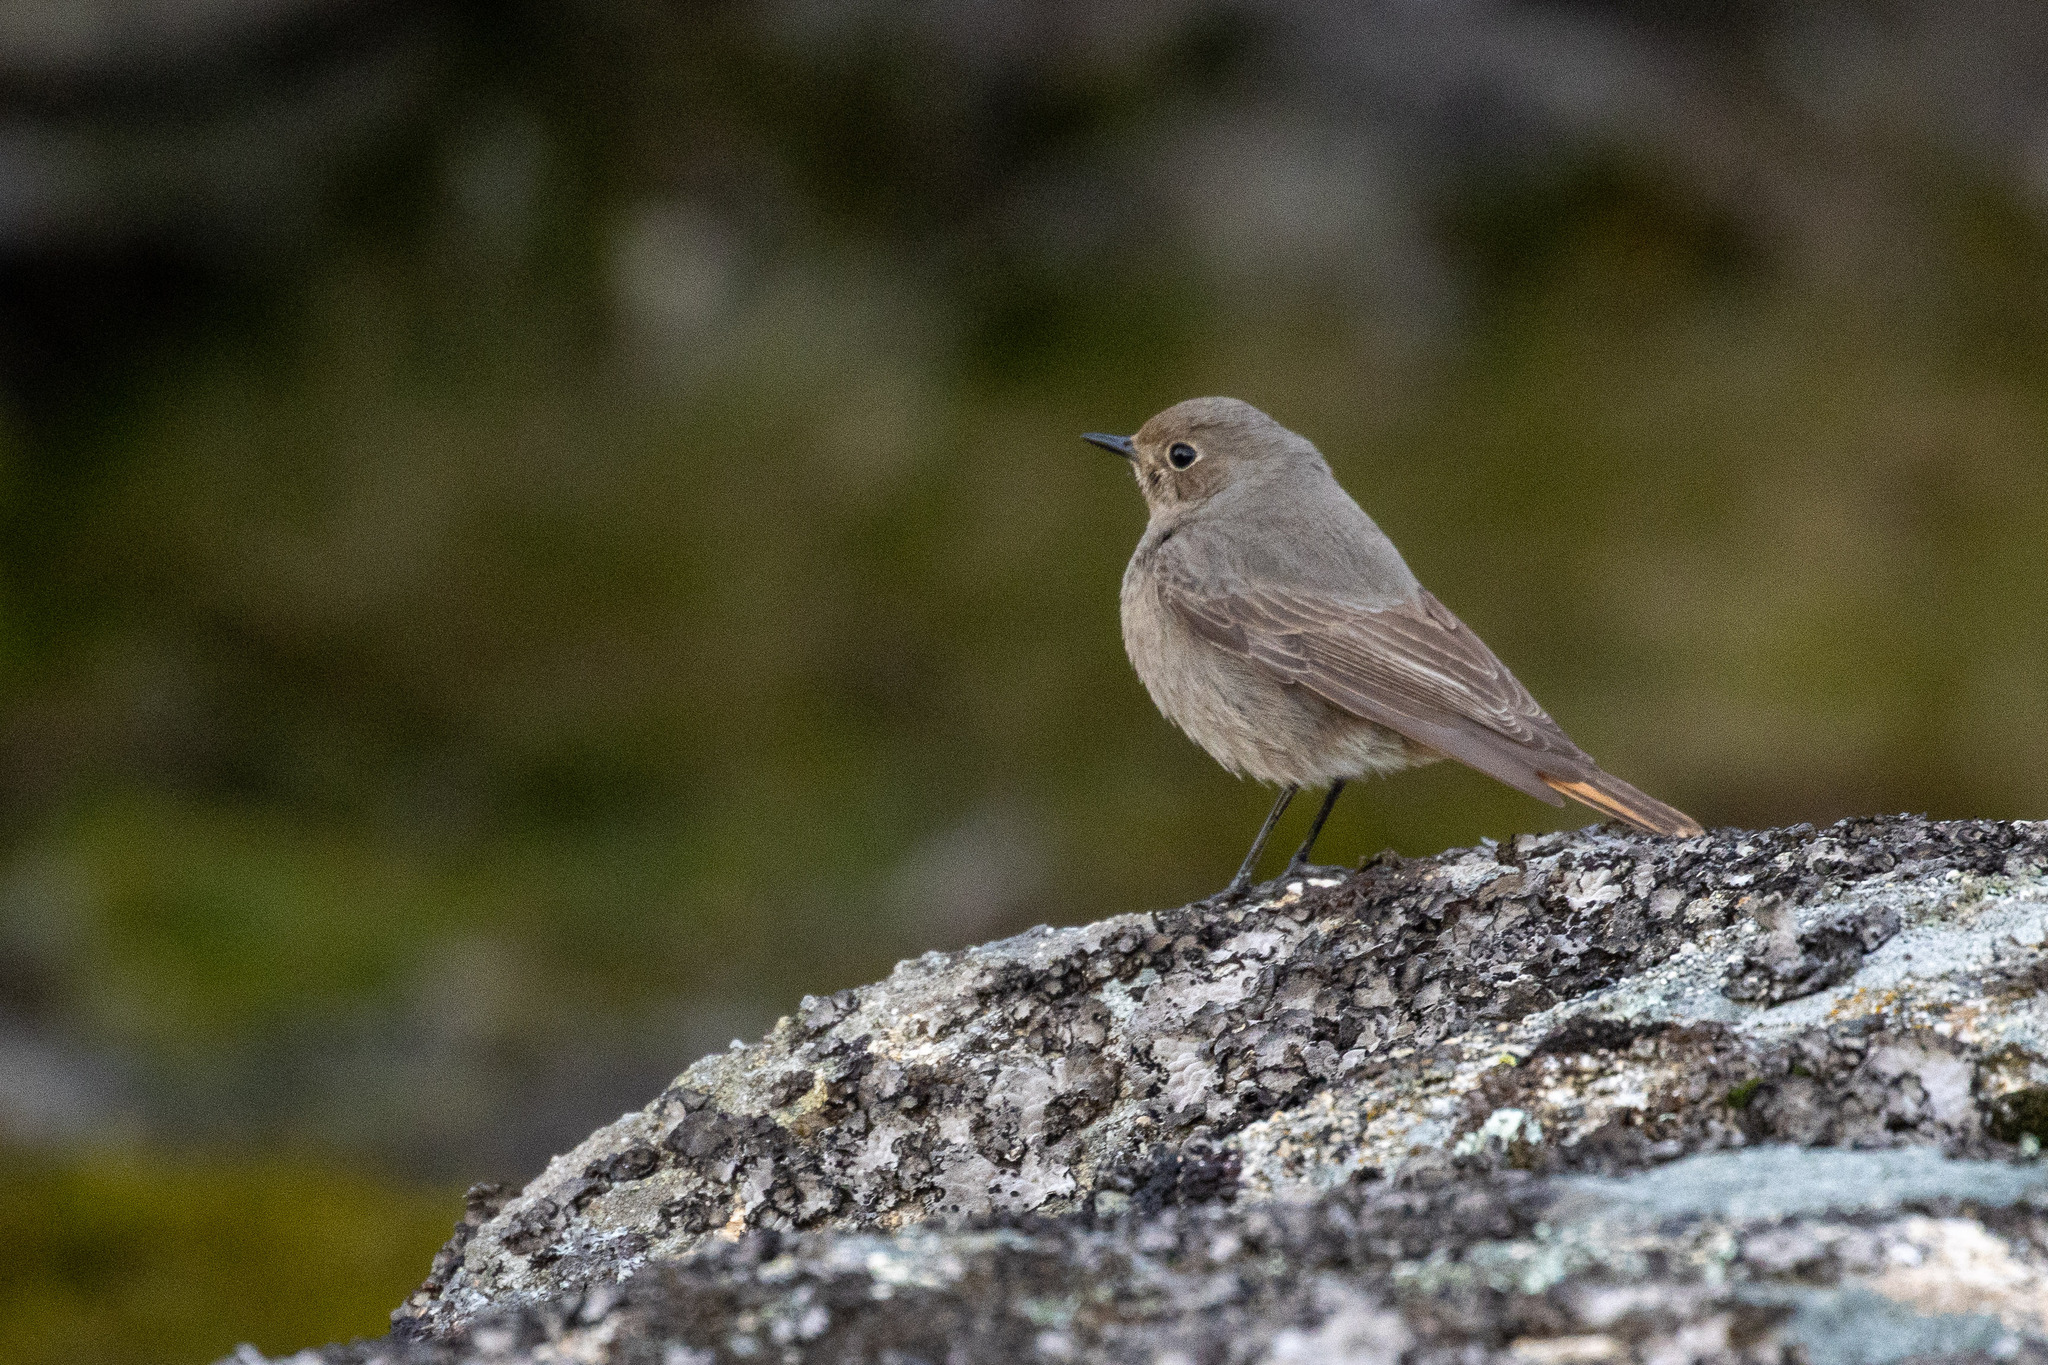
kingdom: Animalia
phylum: Chordata
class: Aves
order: Passeriformes
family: Muscicapidae
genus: Phoenicurus
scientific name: Phoenicurus ochruros
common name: Black redstart
